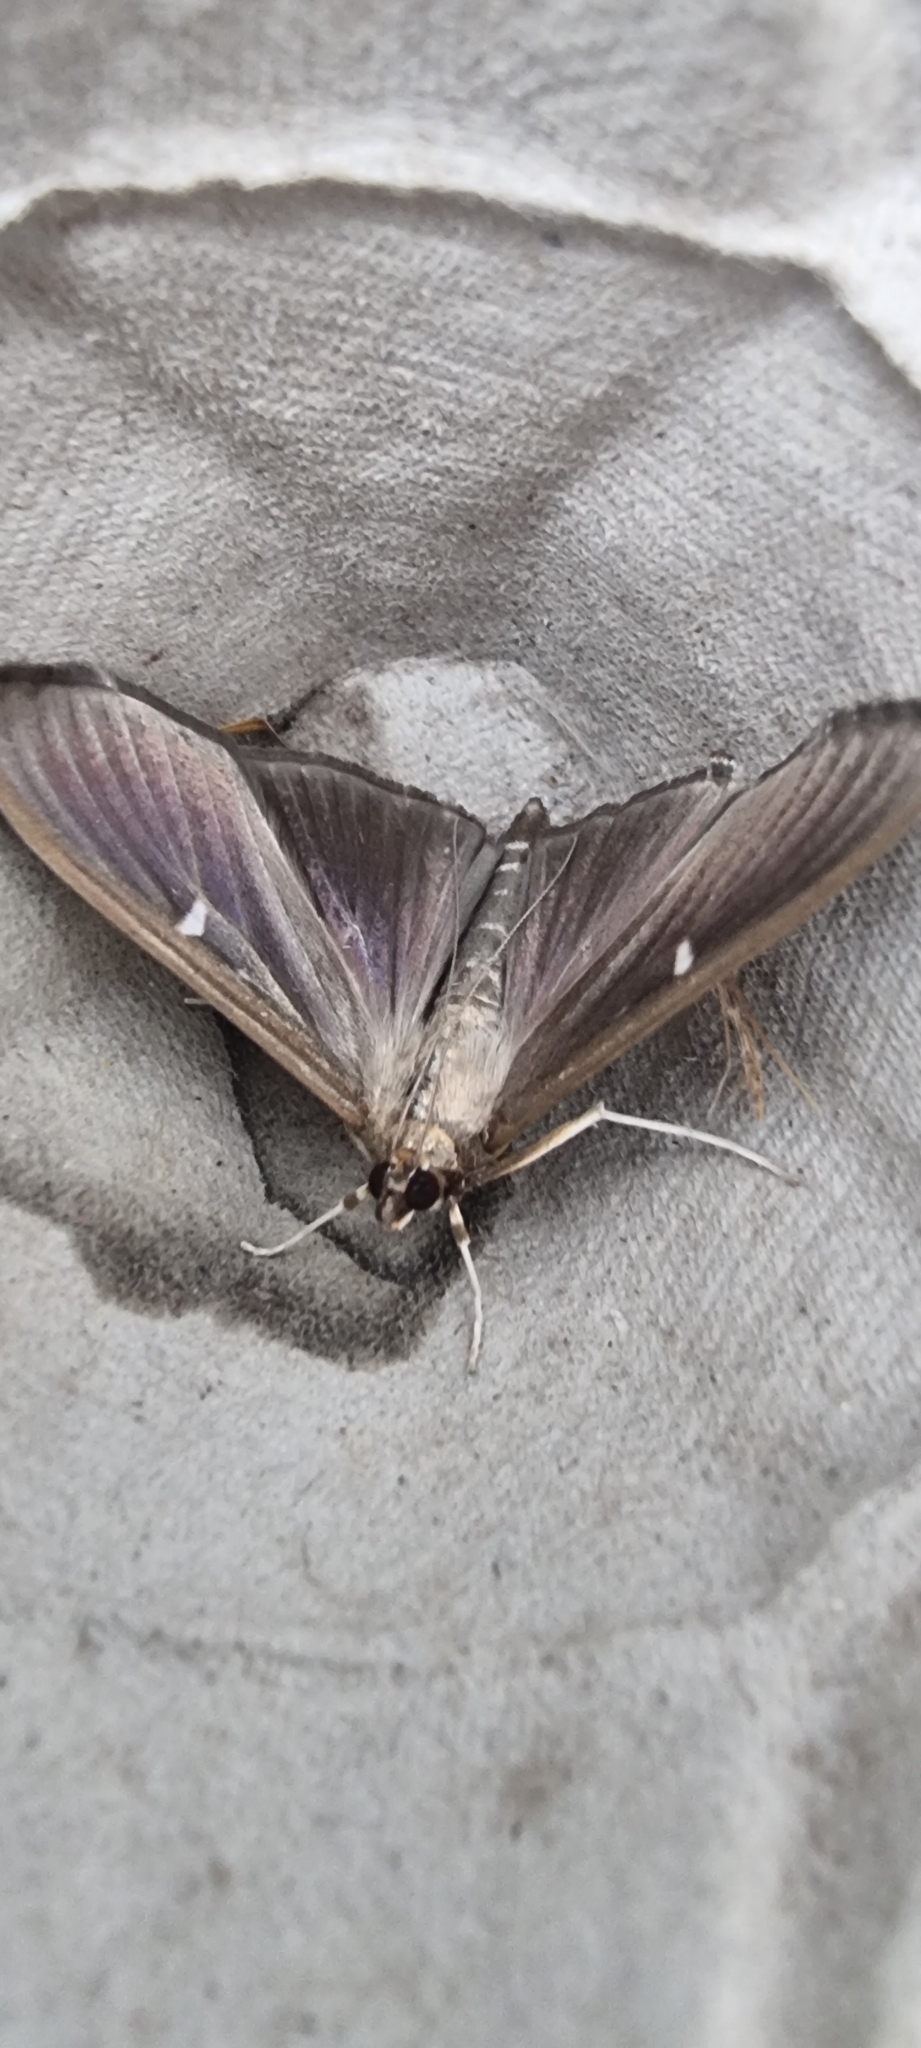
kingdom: Animalia
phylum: Arthropoda
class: Insecta
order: Lepidoptera
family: Crambidae
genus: Cydalima
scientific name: Cydalima perspectalis
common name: Box tree moth
